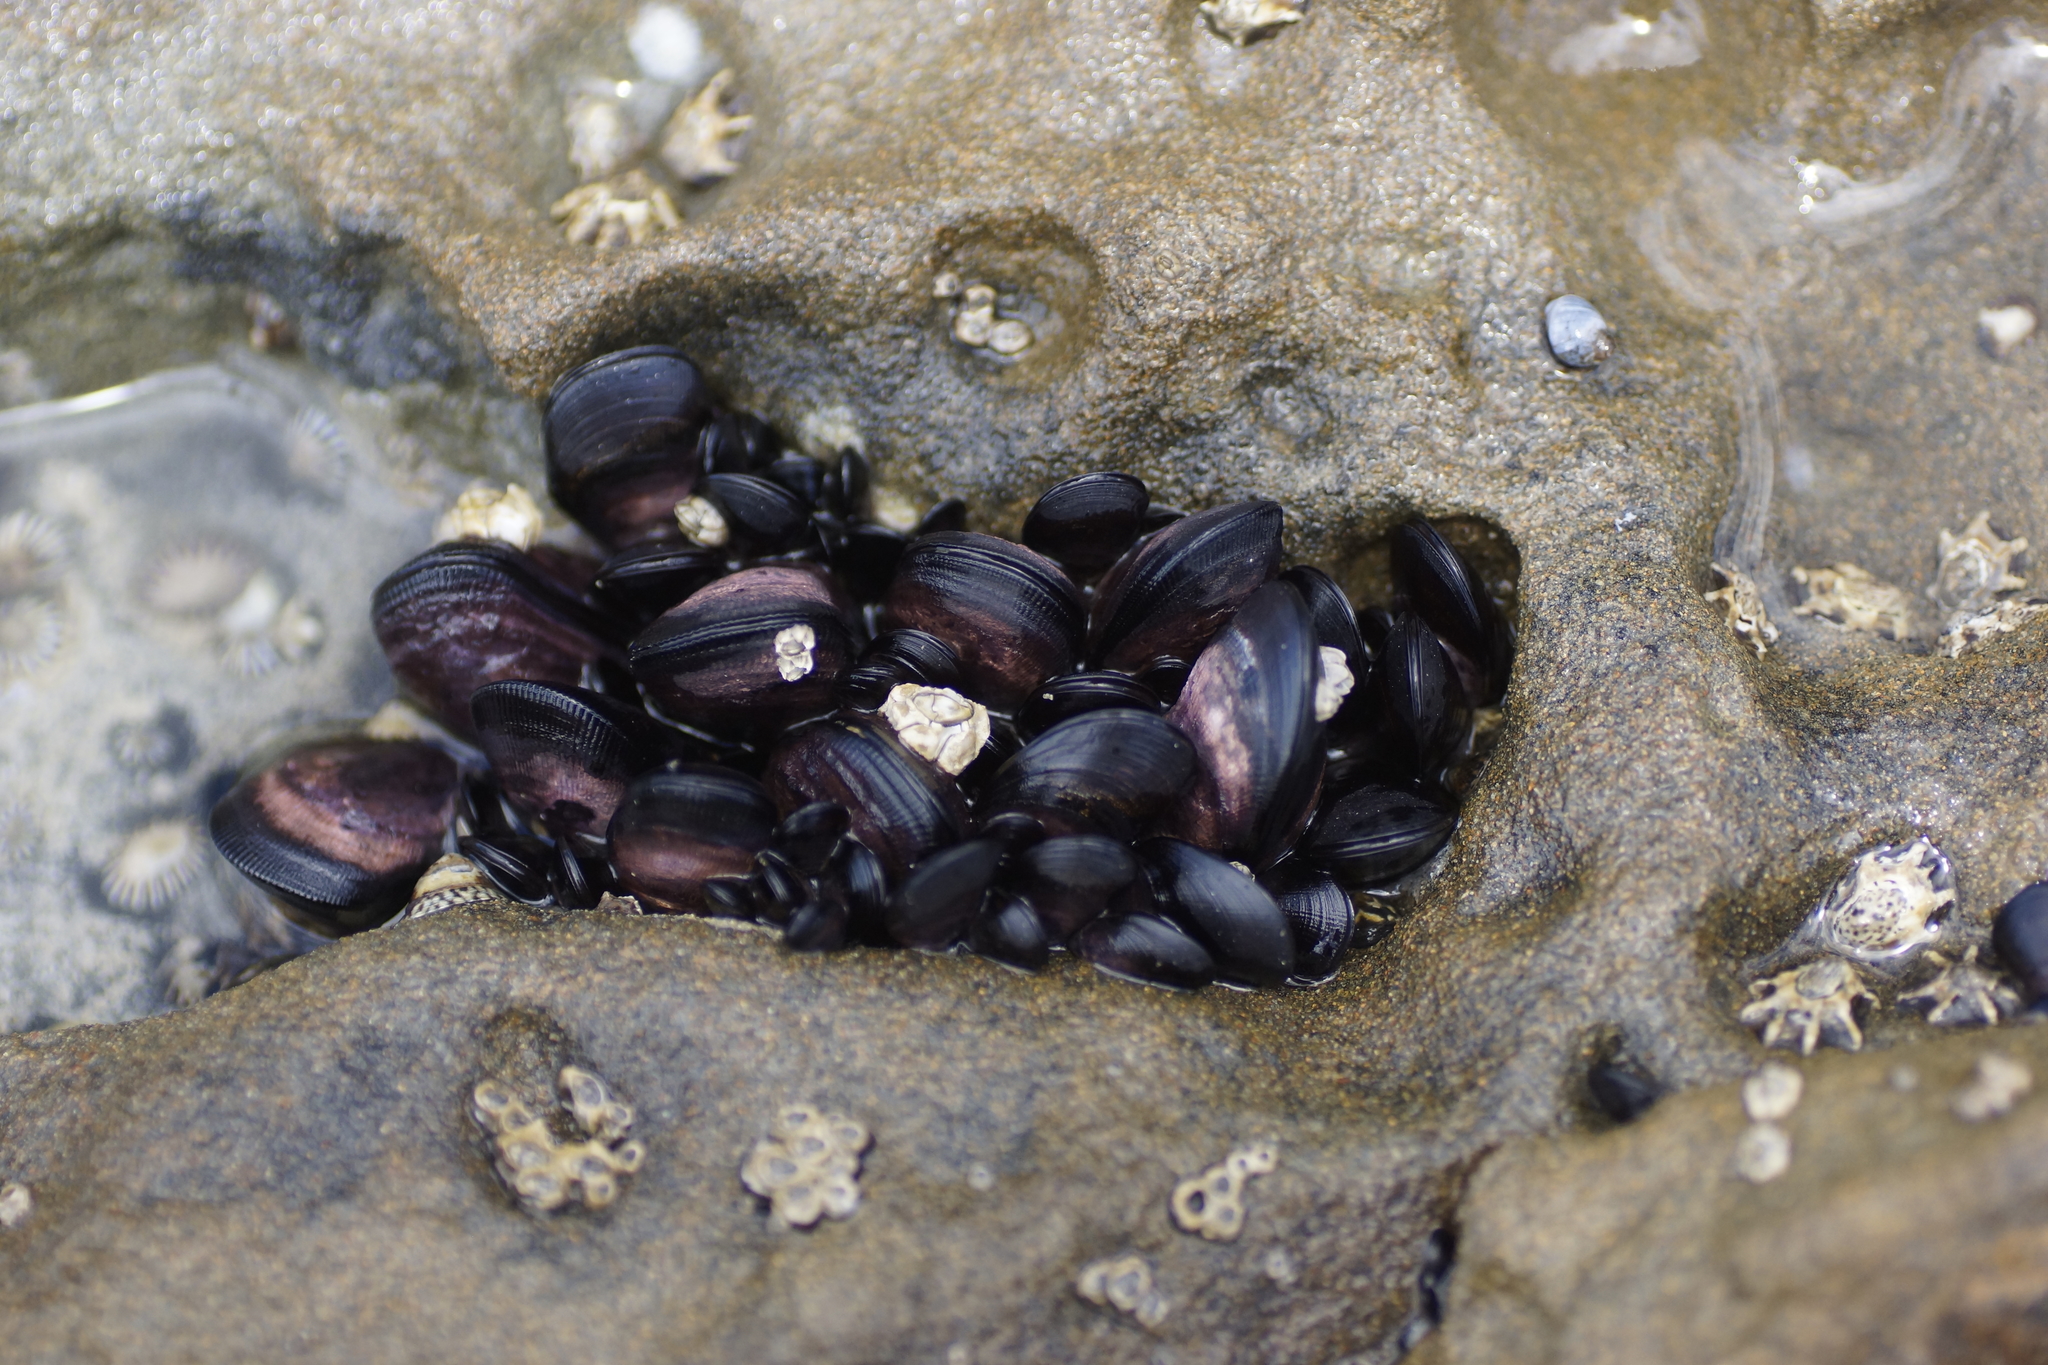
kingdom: Animalia
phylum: Mollusca
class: Bivalvia
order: Mytilida
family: Mytilidae
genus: Brachidontes
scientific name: Brachidontes rostratus
